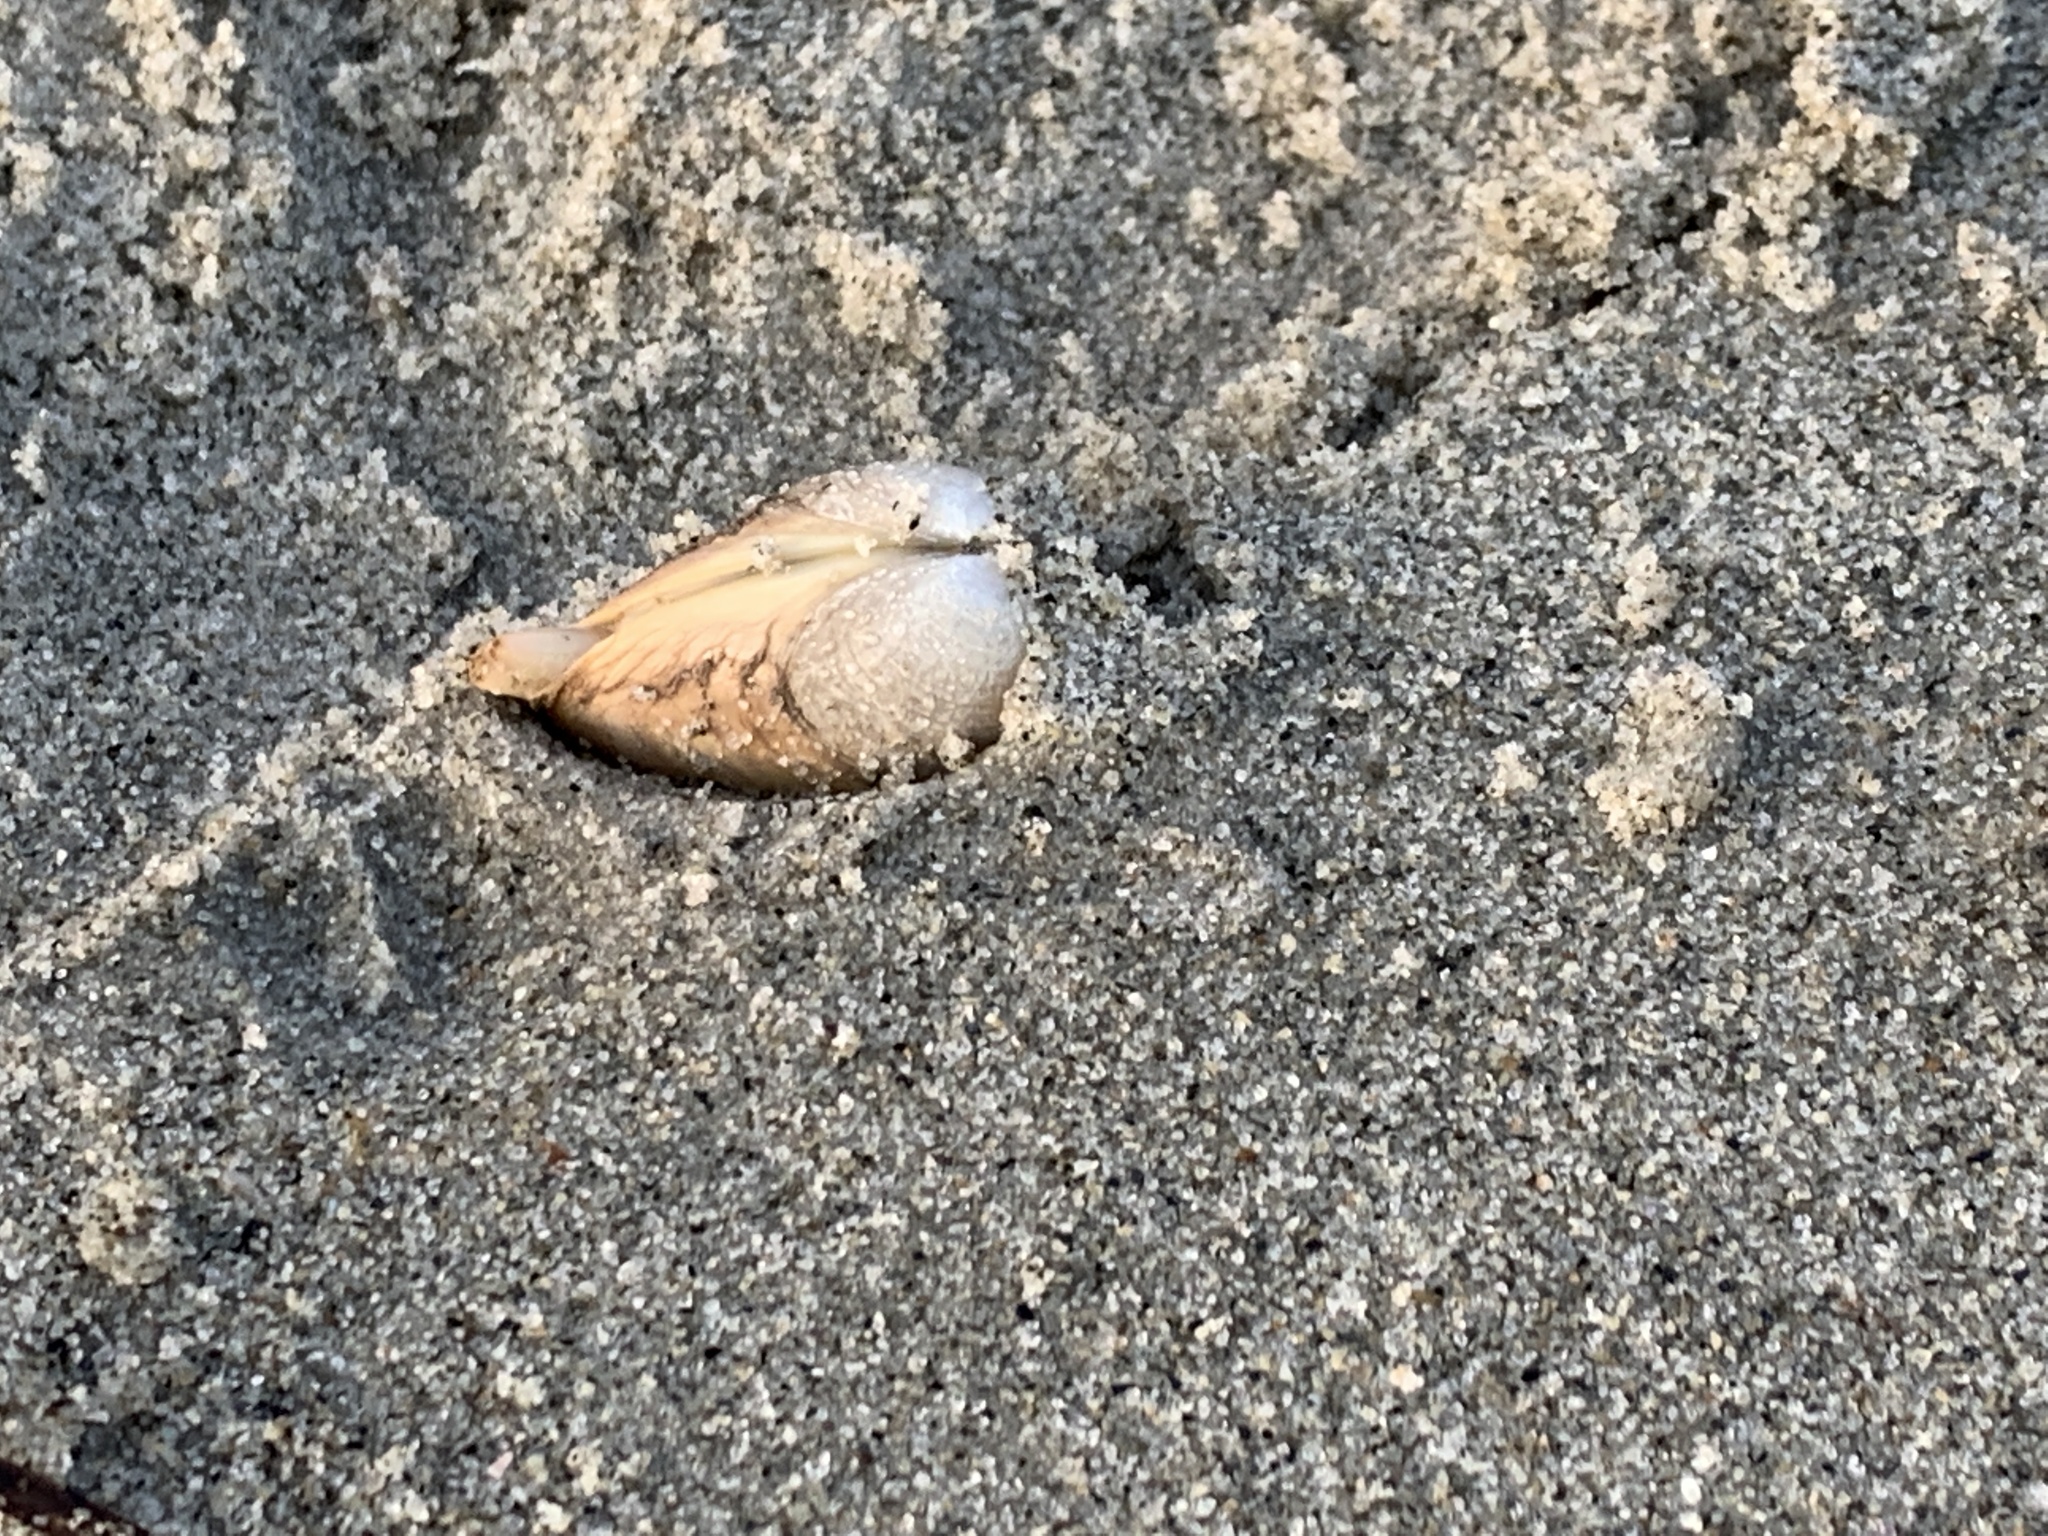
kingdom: Animalia
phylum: Mollusca
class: Bivalvia
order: Venerida
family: Mactridae
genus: Spisula
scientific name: Spisula solidissima
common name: Atlantic surf clam
